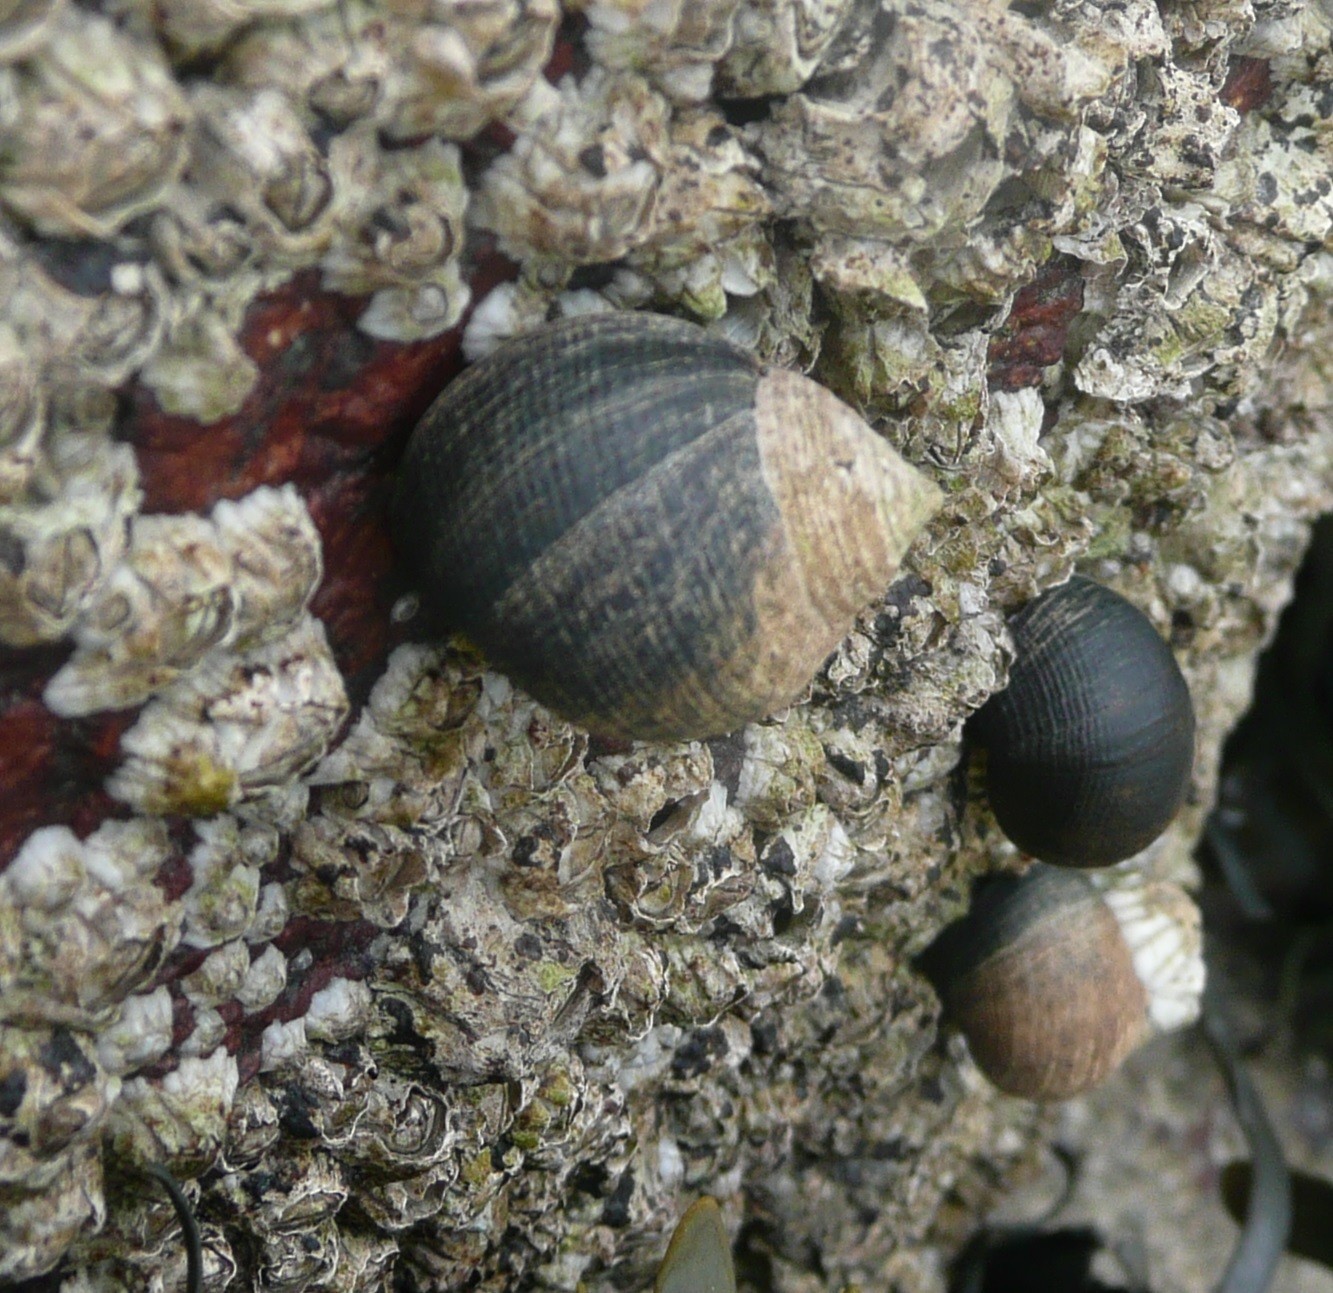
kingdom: Animalia
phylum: Mollusca
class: Gastropoda
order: Littorinimorpha
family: Littorinidae
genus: Littorina
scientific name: Littorina littorea
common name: Common periwinkle
